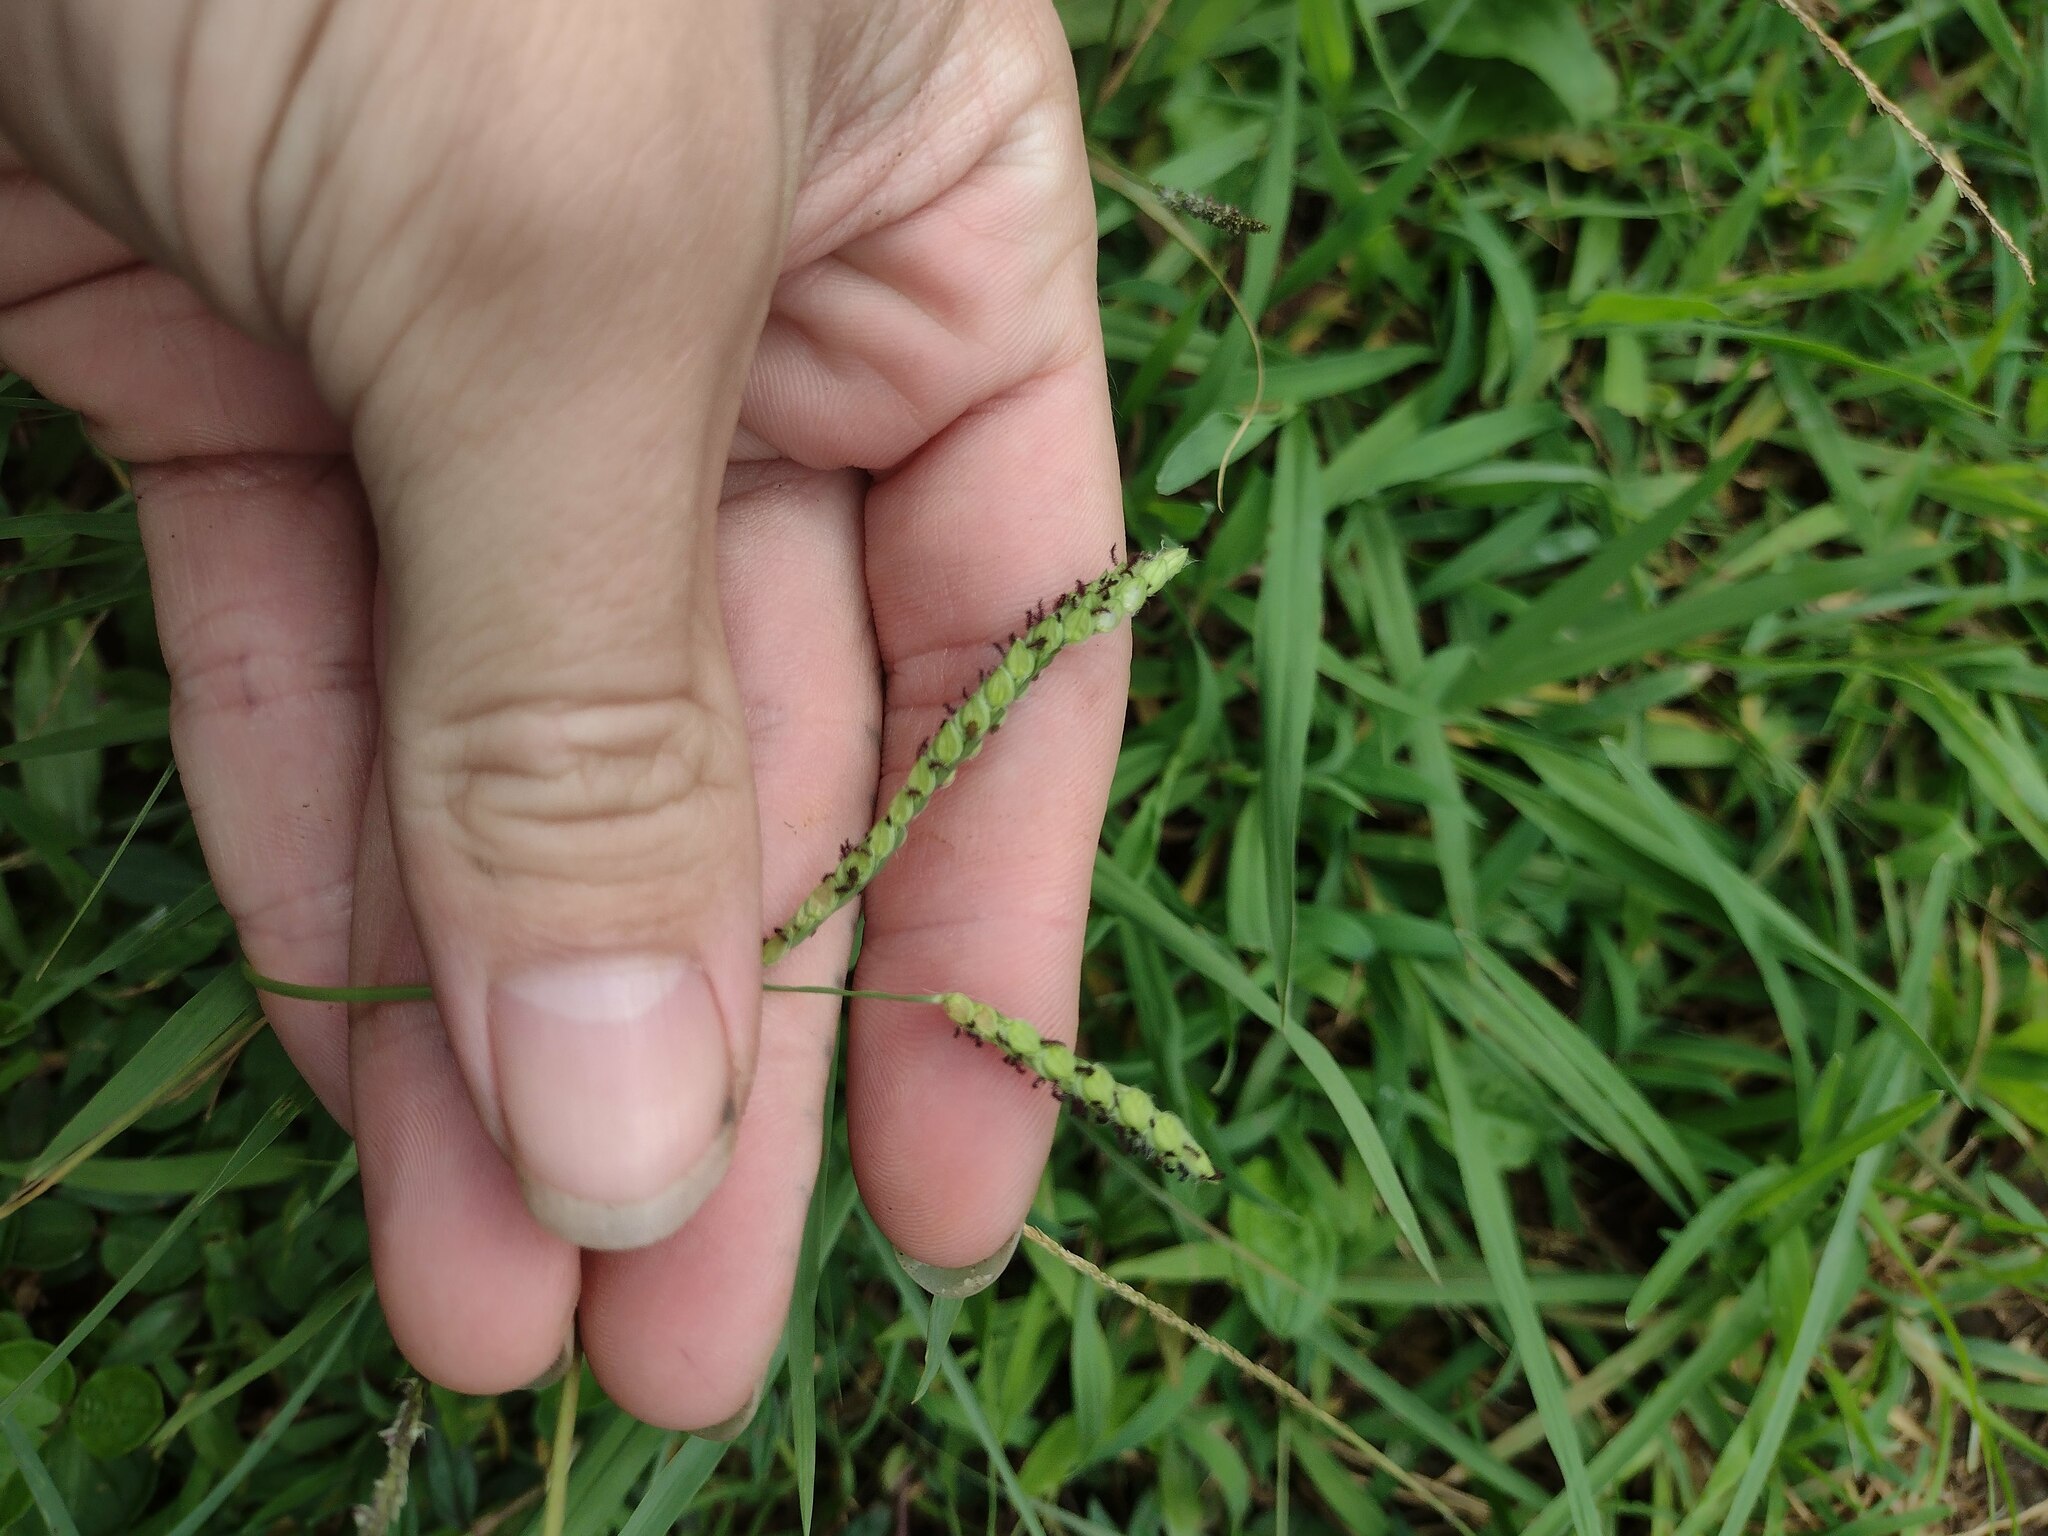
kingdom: Plantae
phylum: Tracheophyta
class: Liliopsida
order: Poales
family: Poaceae
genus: Paspalum
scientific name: Paspalum dilatatum
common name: Dallisgrass
